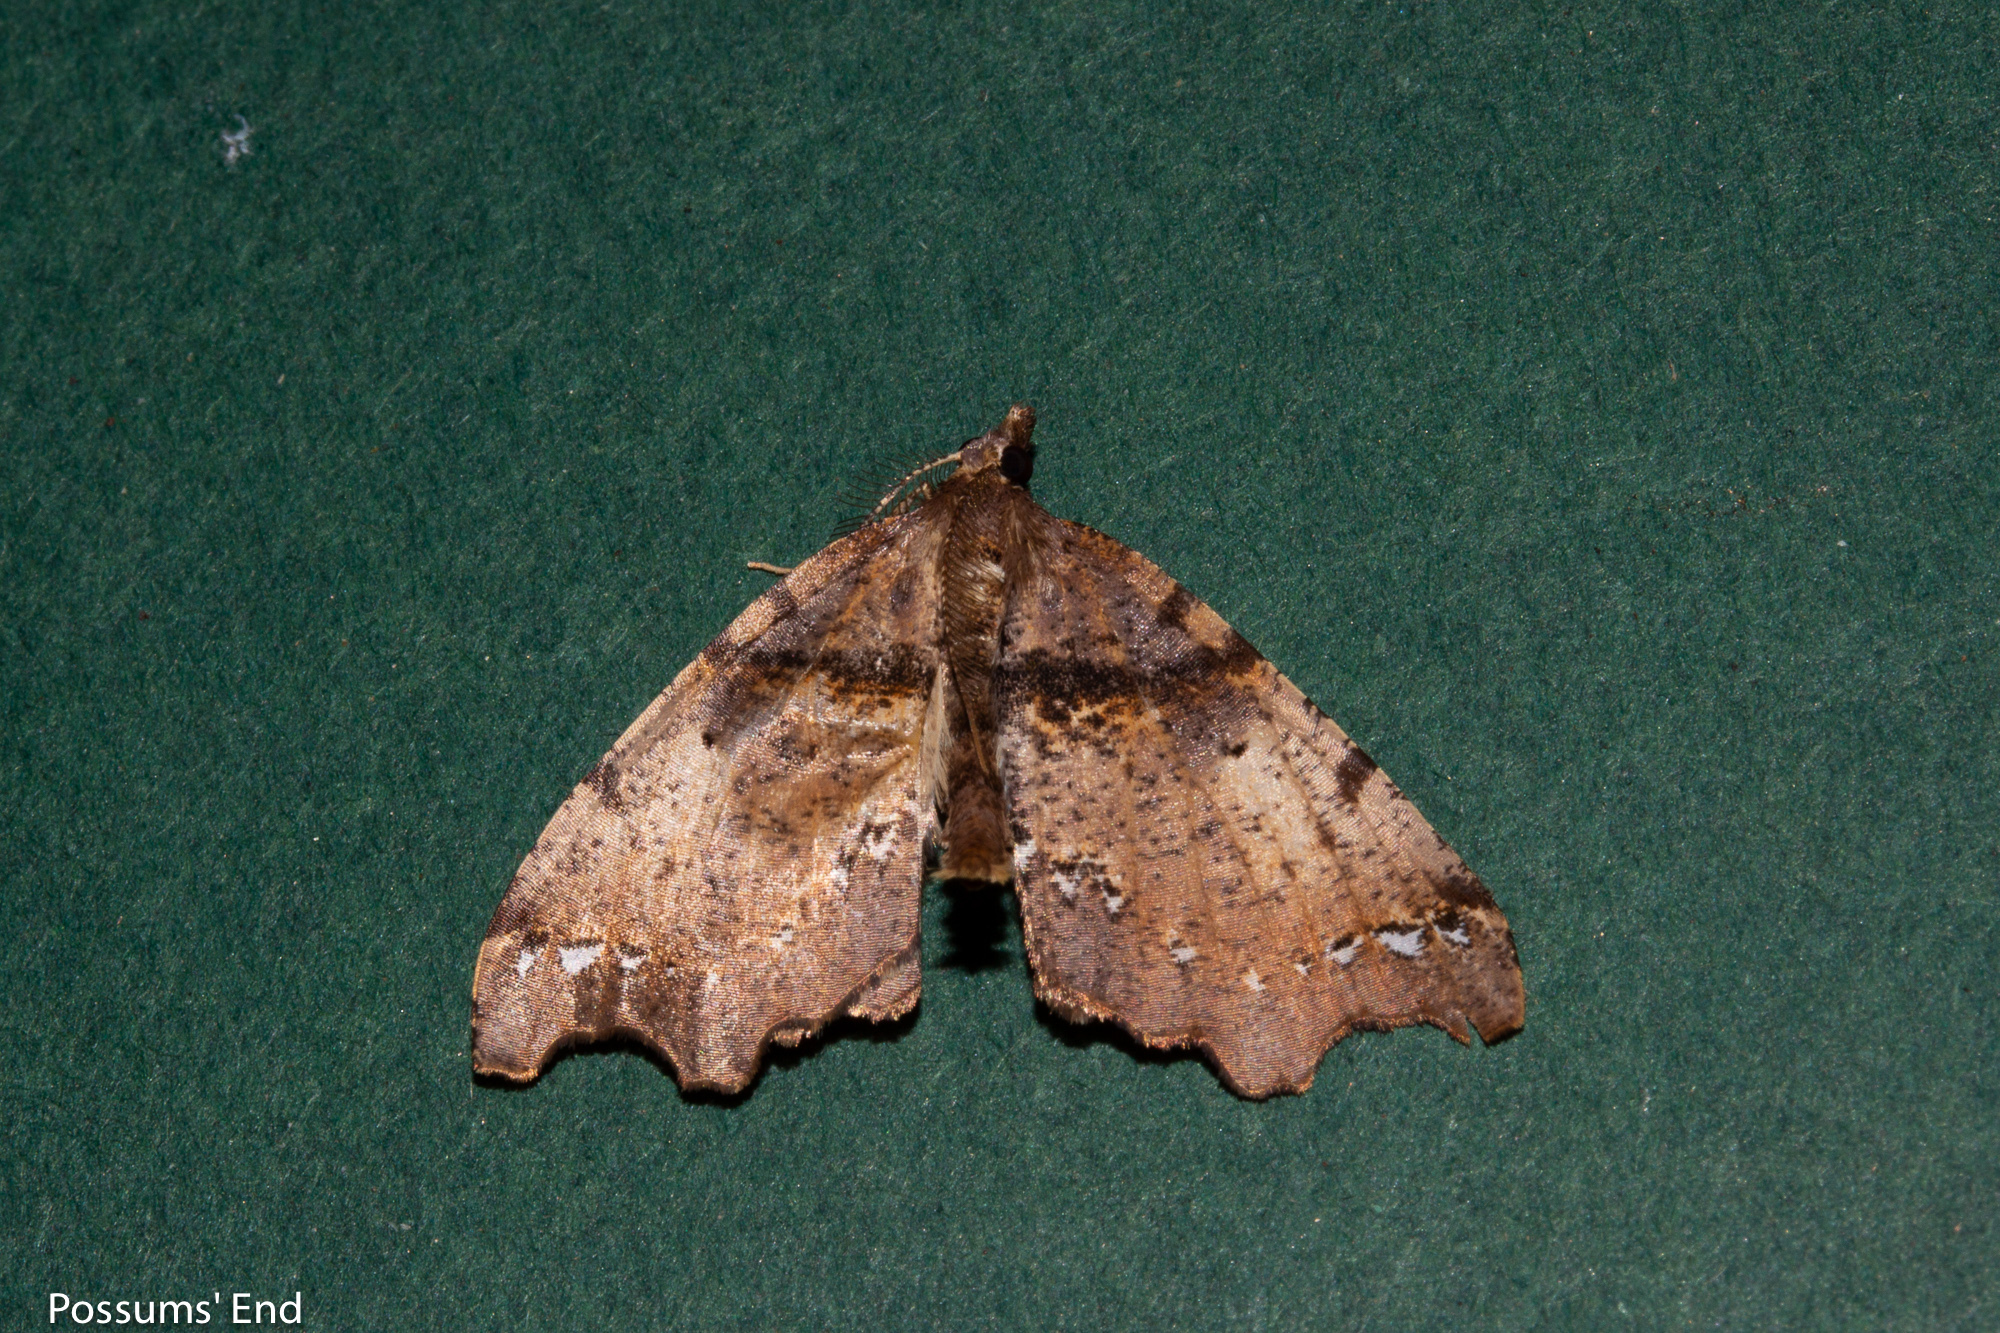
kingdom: Animalia
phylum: Arthropoda
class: Insecta
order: Lepidoptera
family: Geometridae
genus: Chalastra
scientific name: Chalastra pellurgata
